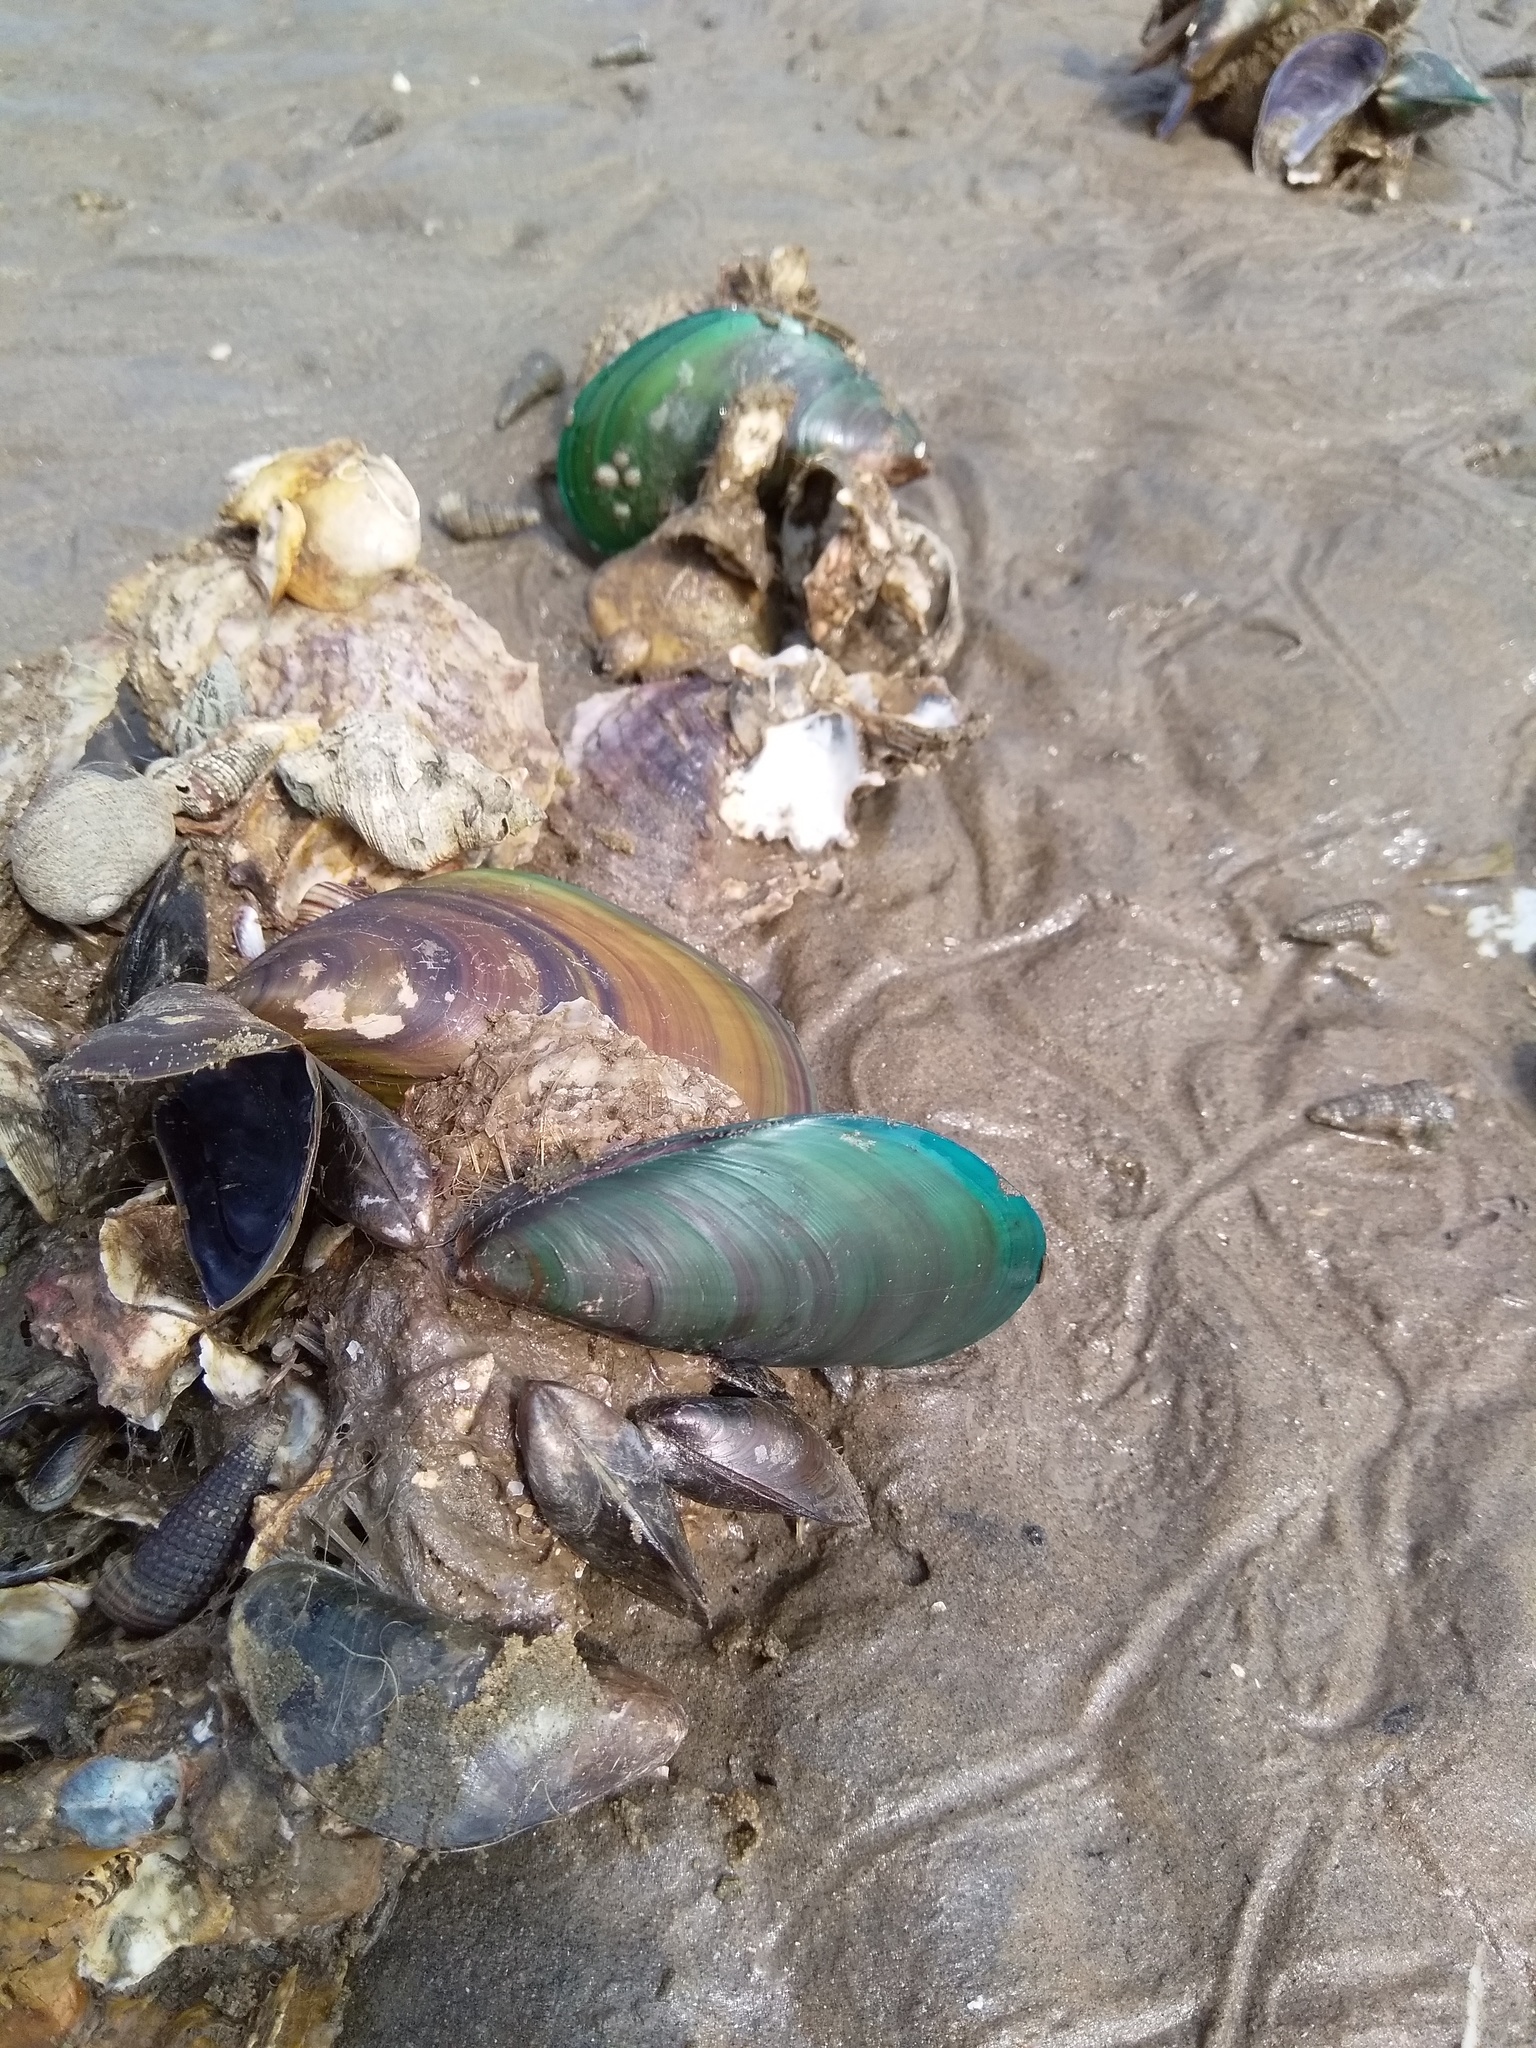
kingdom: Animalia
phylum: Mollusca
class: Bivalvia
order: Mytilida
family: Mytilidae
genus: Perna
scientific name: Perna viridis
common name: Green mussel
